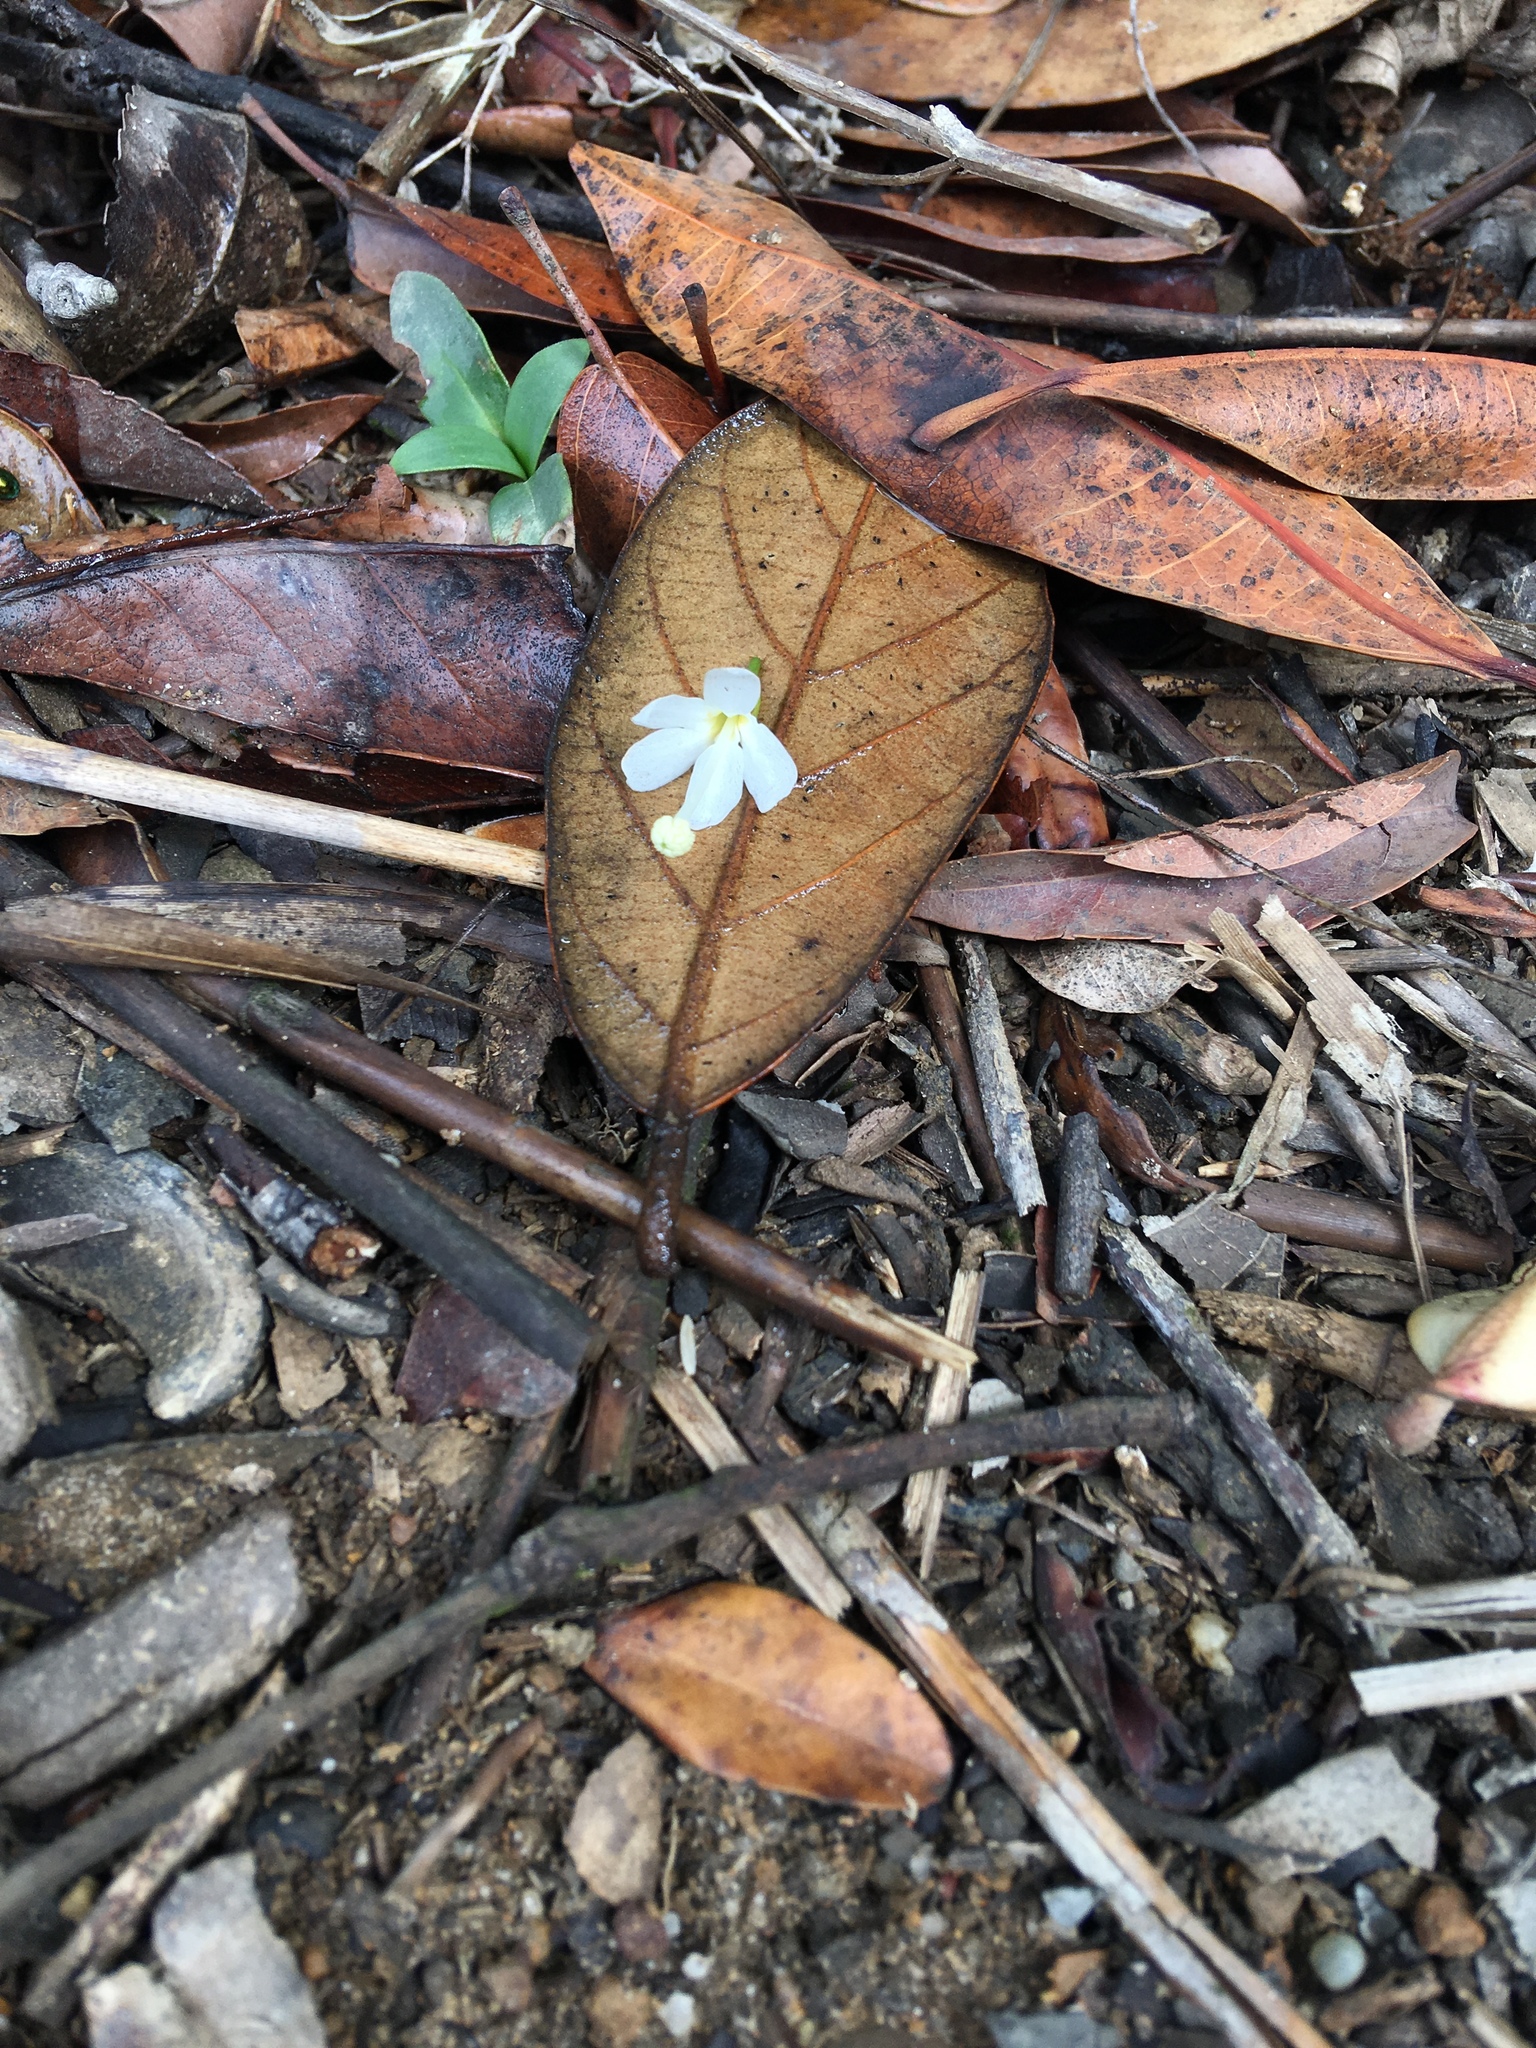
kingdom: Plantae
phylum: Tracheophyta
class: Magnoliopsida
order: Malvales
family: Malvaceae
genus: Reevesia
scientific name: Reevesia thyrsoidea
